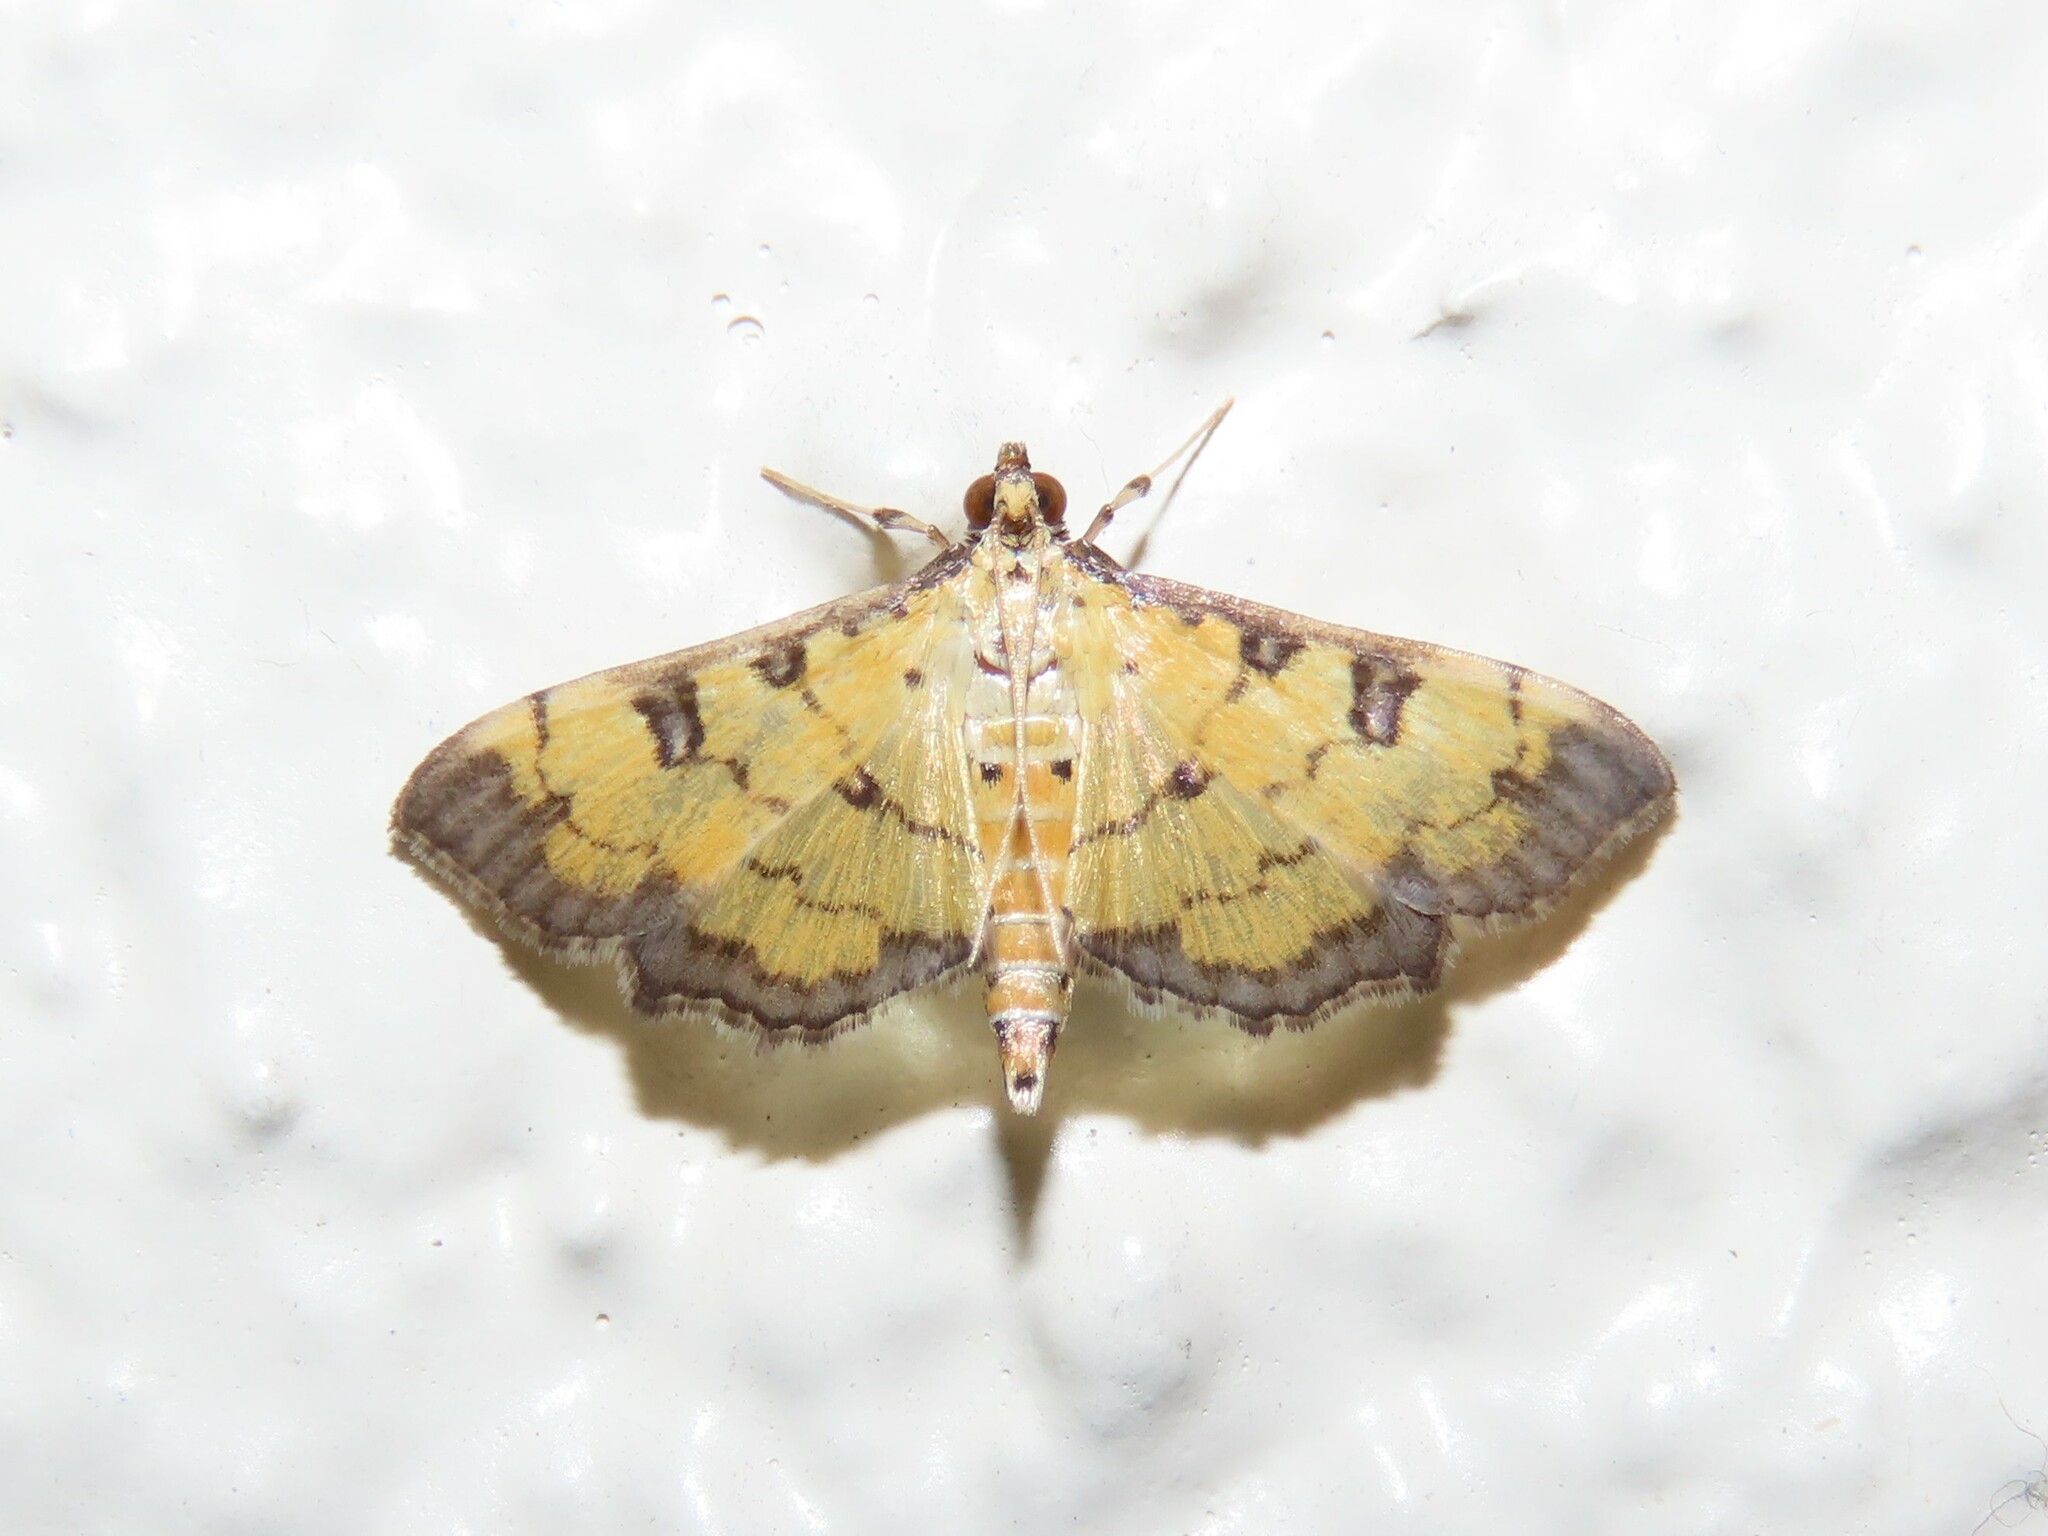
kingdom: Animalia
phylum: Arthropoda
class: Insecta
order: Lepidoptera
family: Crambidae
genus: Ategumia
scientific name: Ategumia ebulealis
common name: Moth
